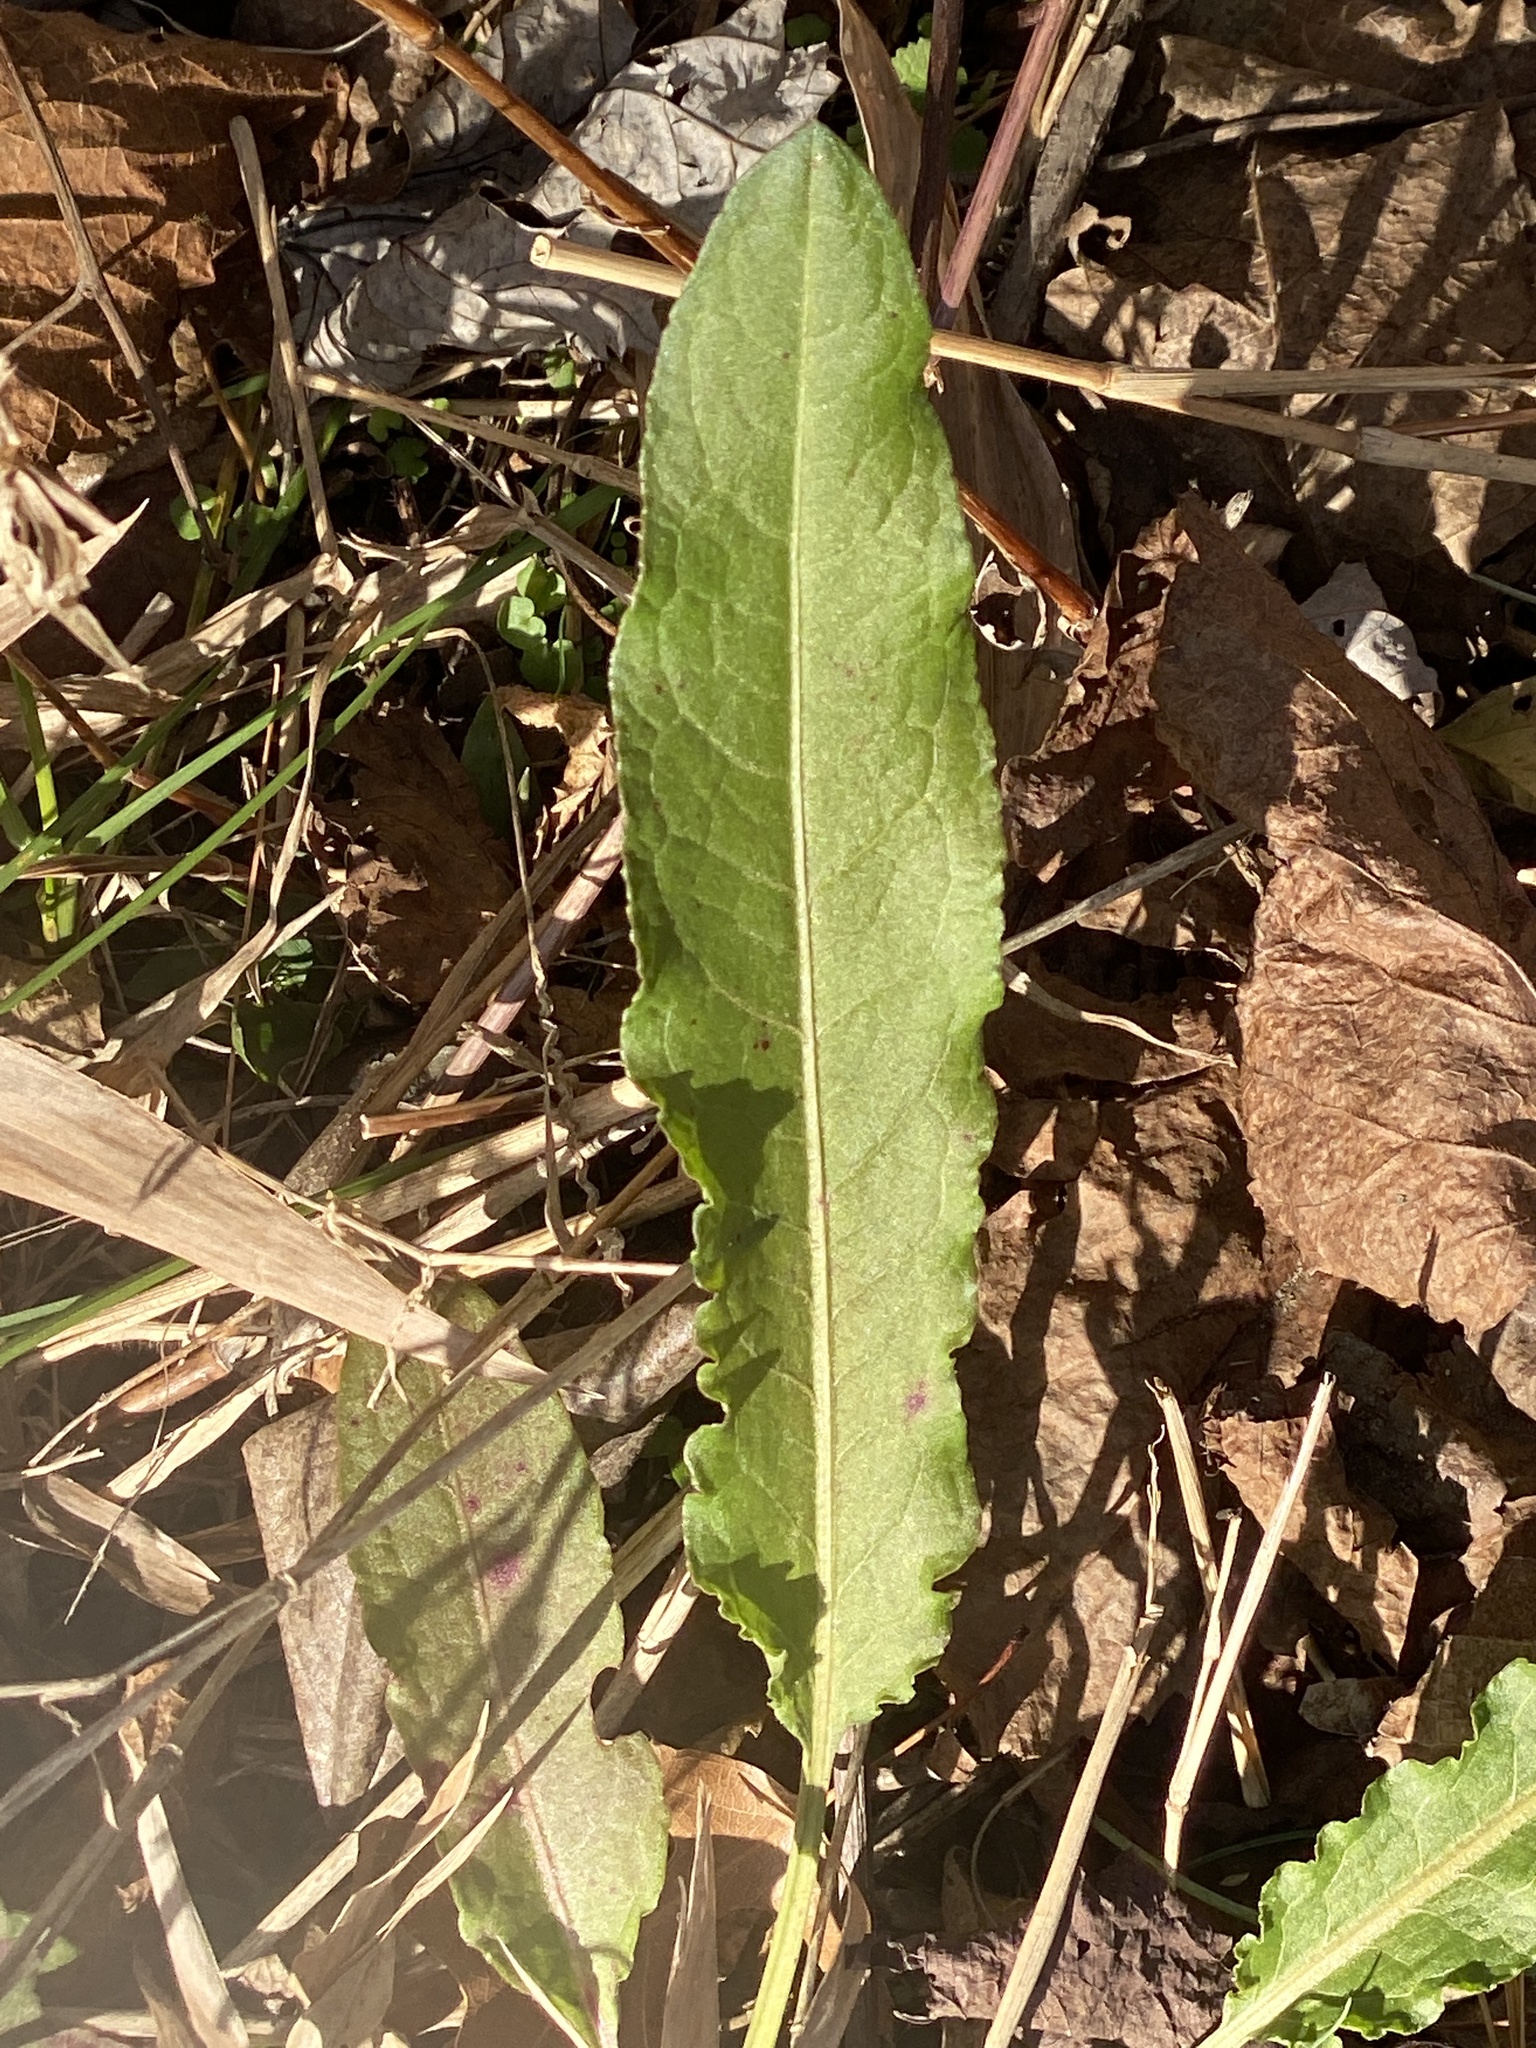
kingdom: Plantae
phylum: Tracheophyta
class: Magnoliopsida
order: Caryophyllales
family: Polygonaceae
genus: Rumex
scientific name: Rumex crispus
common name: Curled dock
